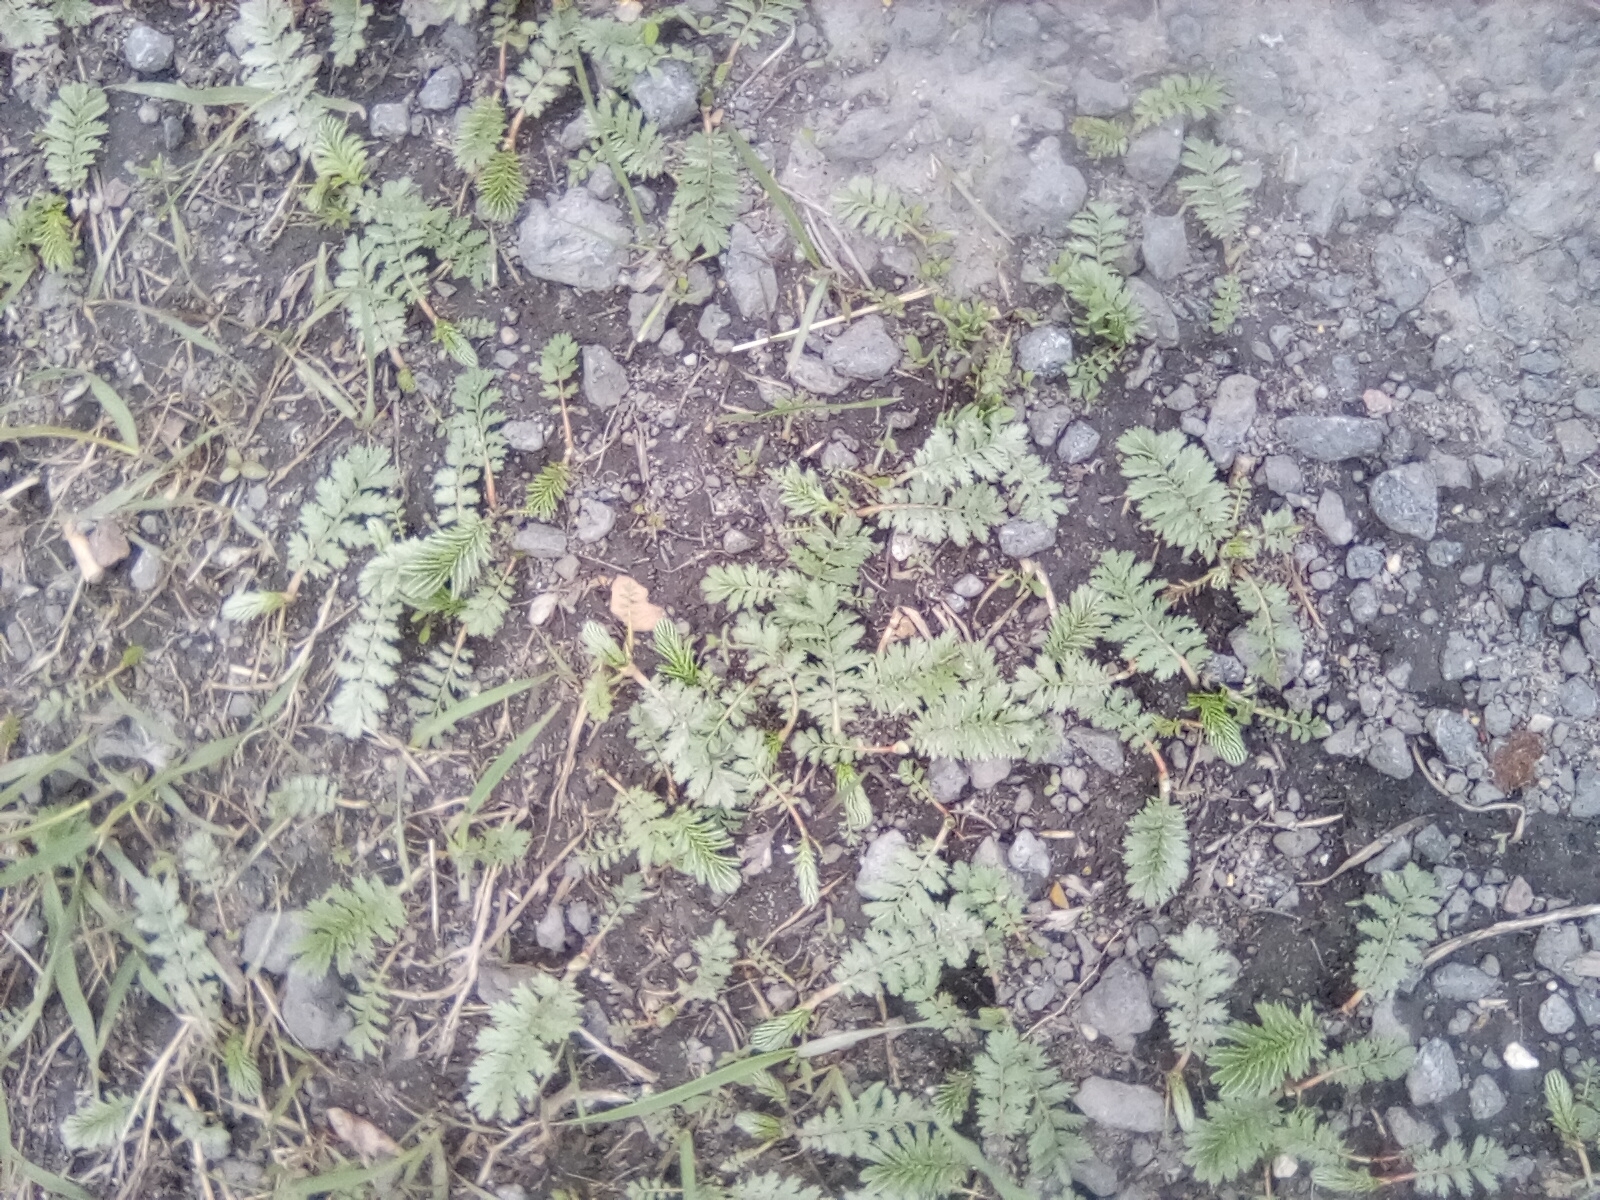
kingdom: Plantae
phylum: Tracheophyta
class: Magnoliopsida
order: Rosales
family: Rosaceae
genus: Argentina
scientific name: Argentina anserina
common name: Common silverweed
